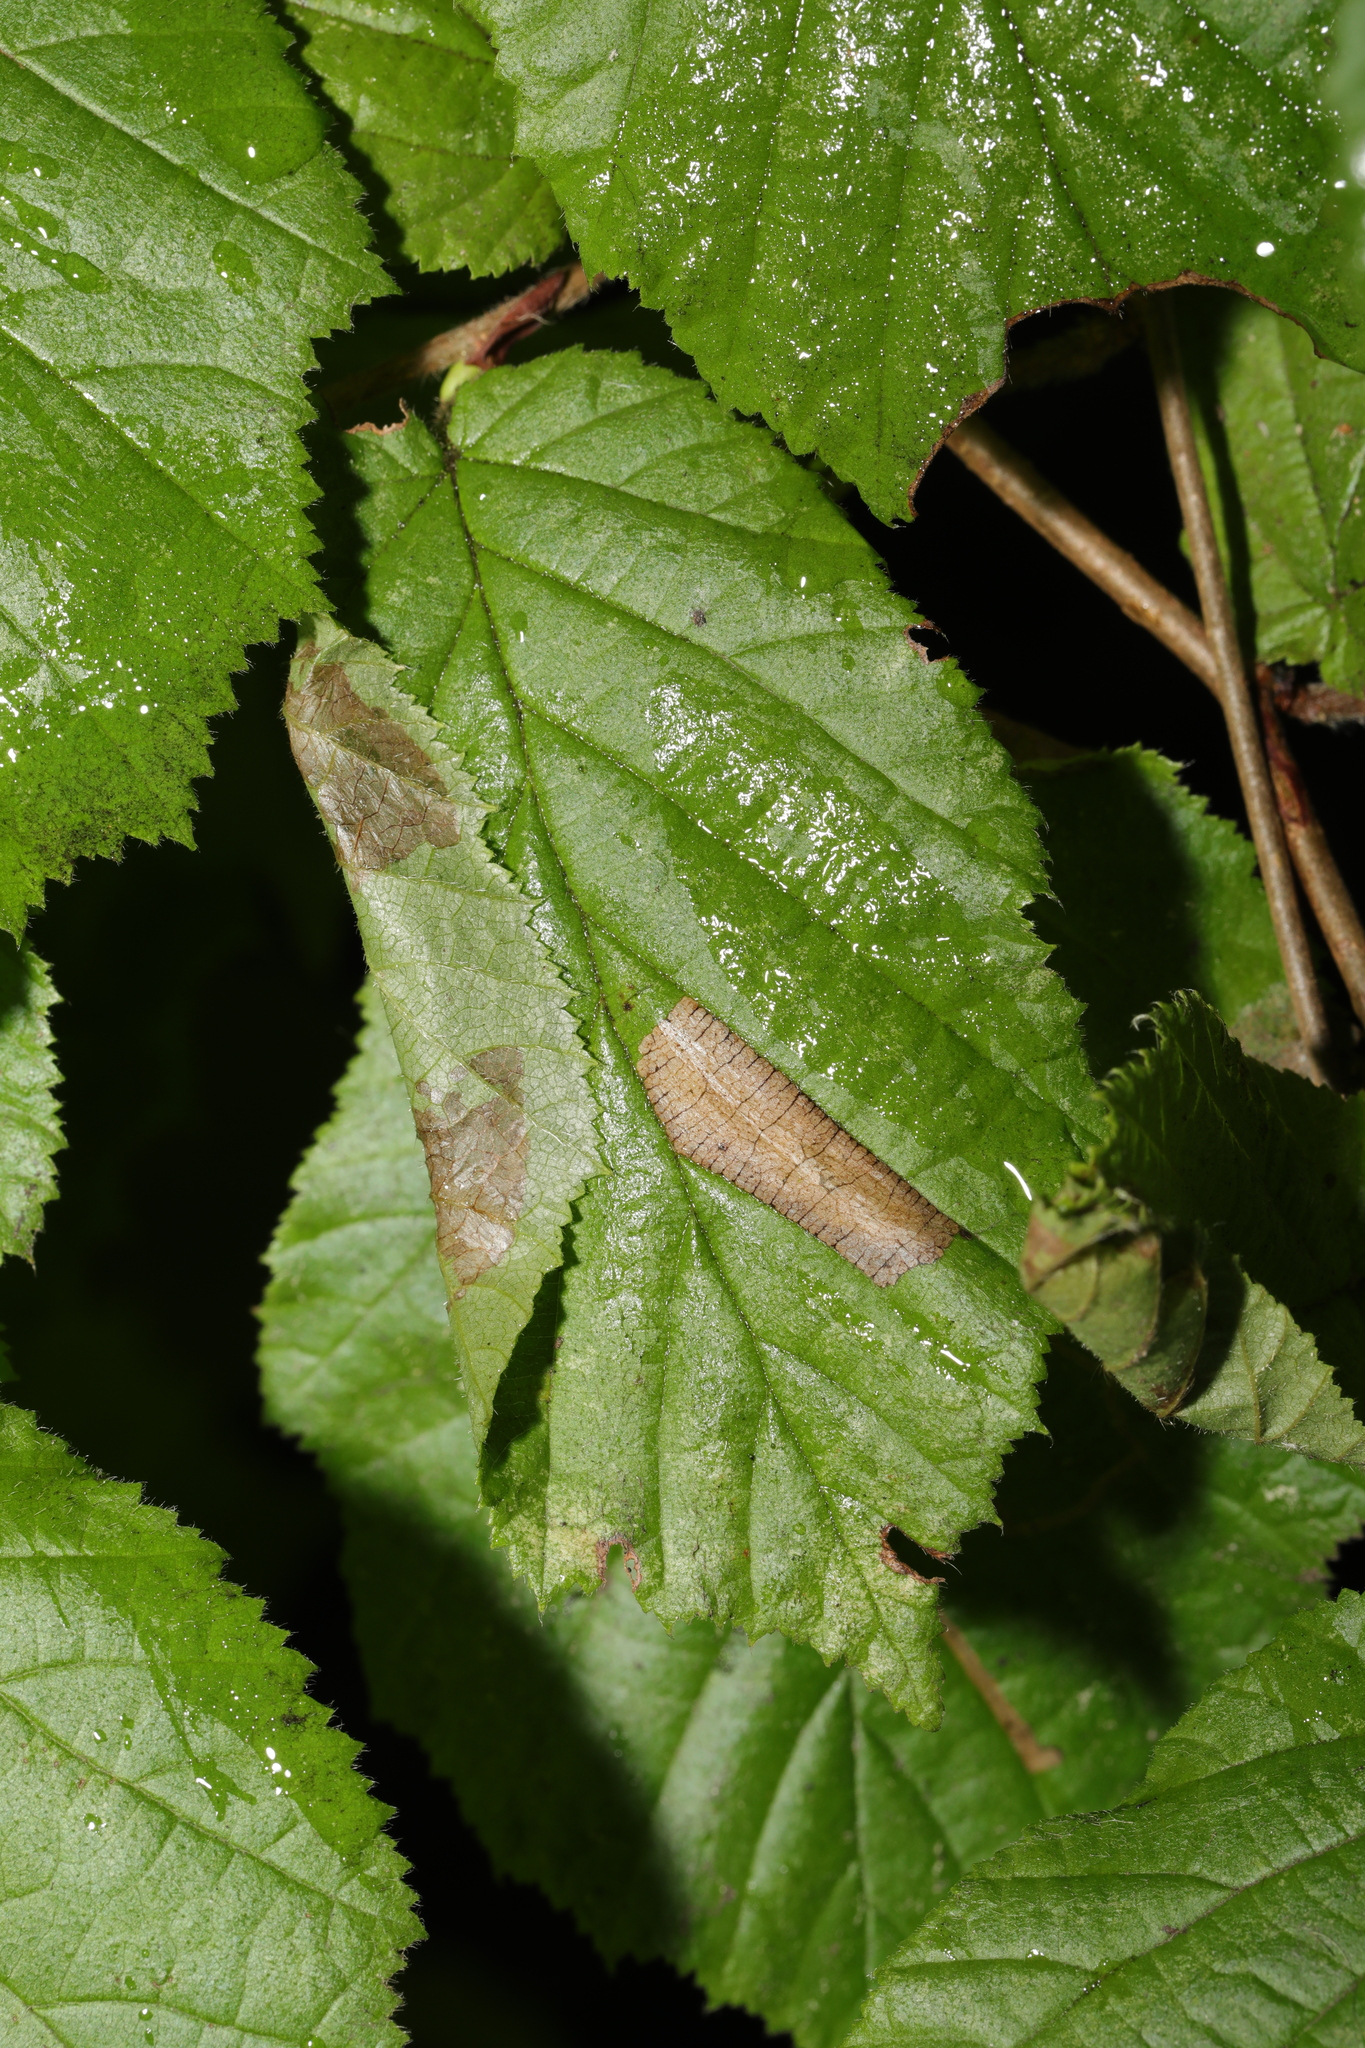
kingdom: Animalia
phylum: Arthropoda
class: Insecta
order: Lepidoptera
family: Gracillariidae
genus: Parornix
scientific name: Parornix devoniella
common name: Hazel slender
